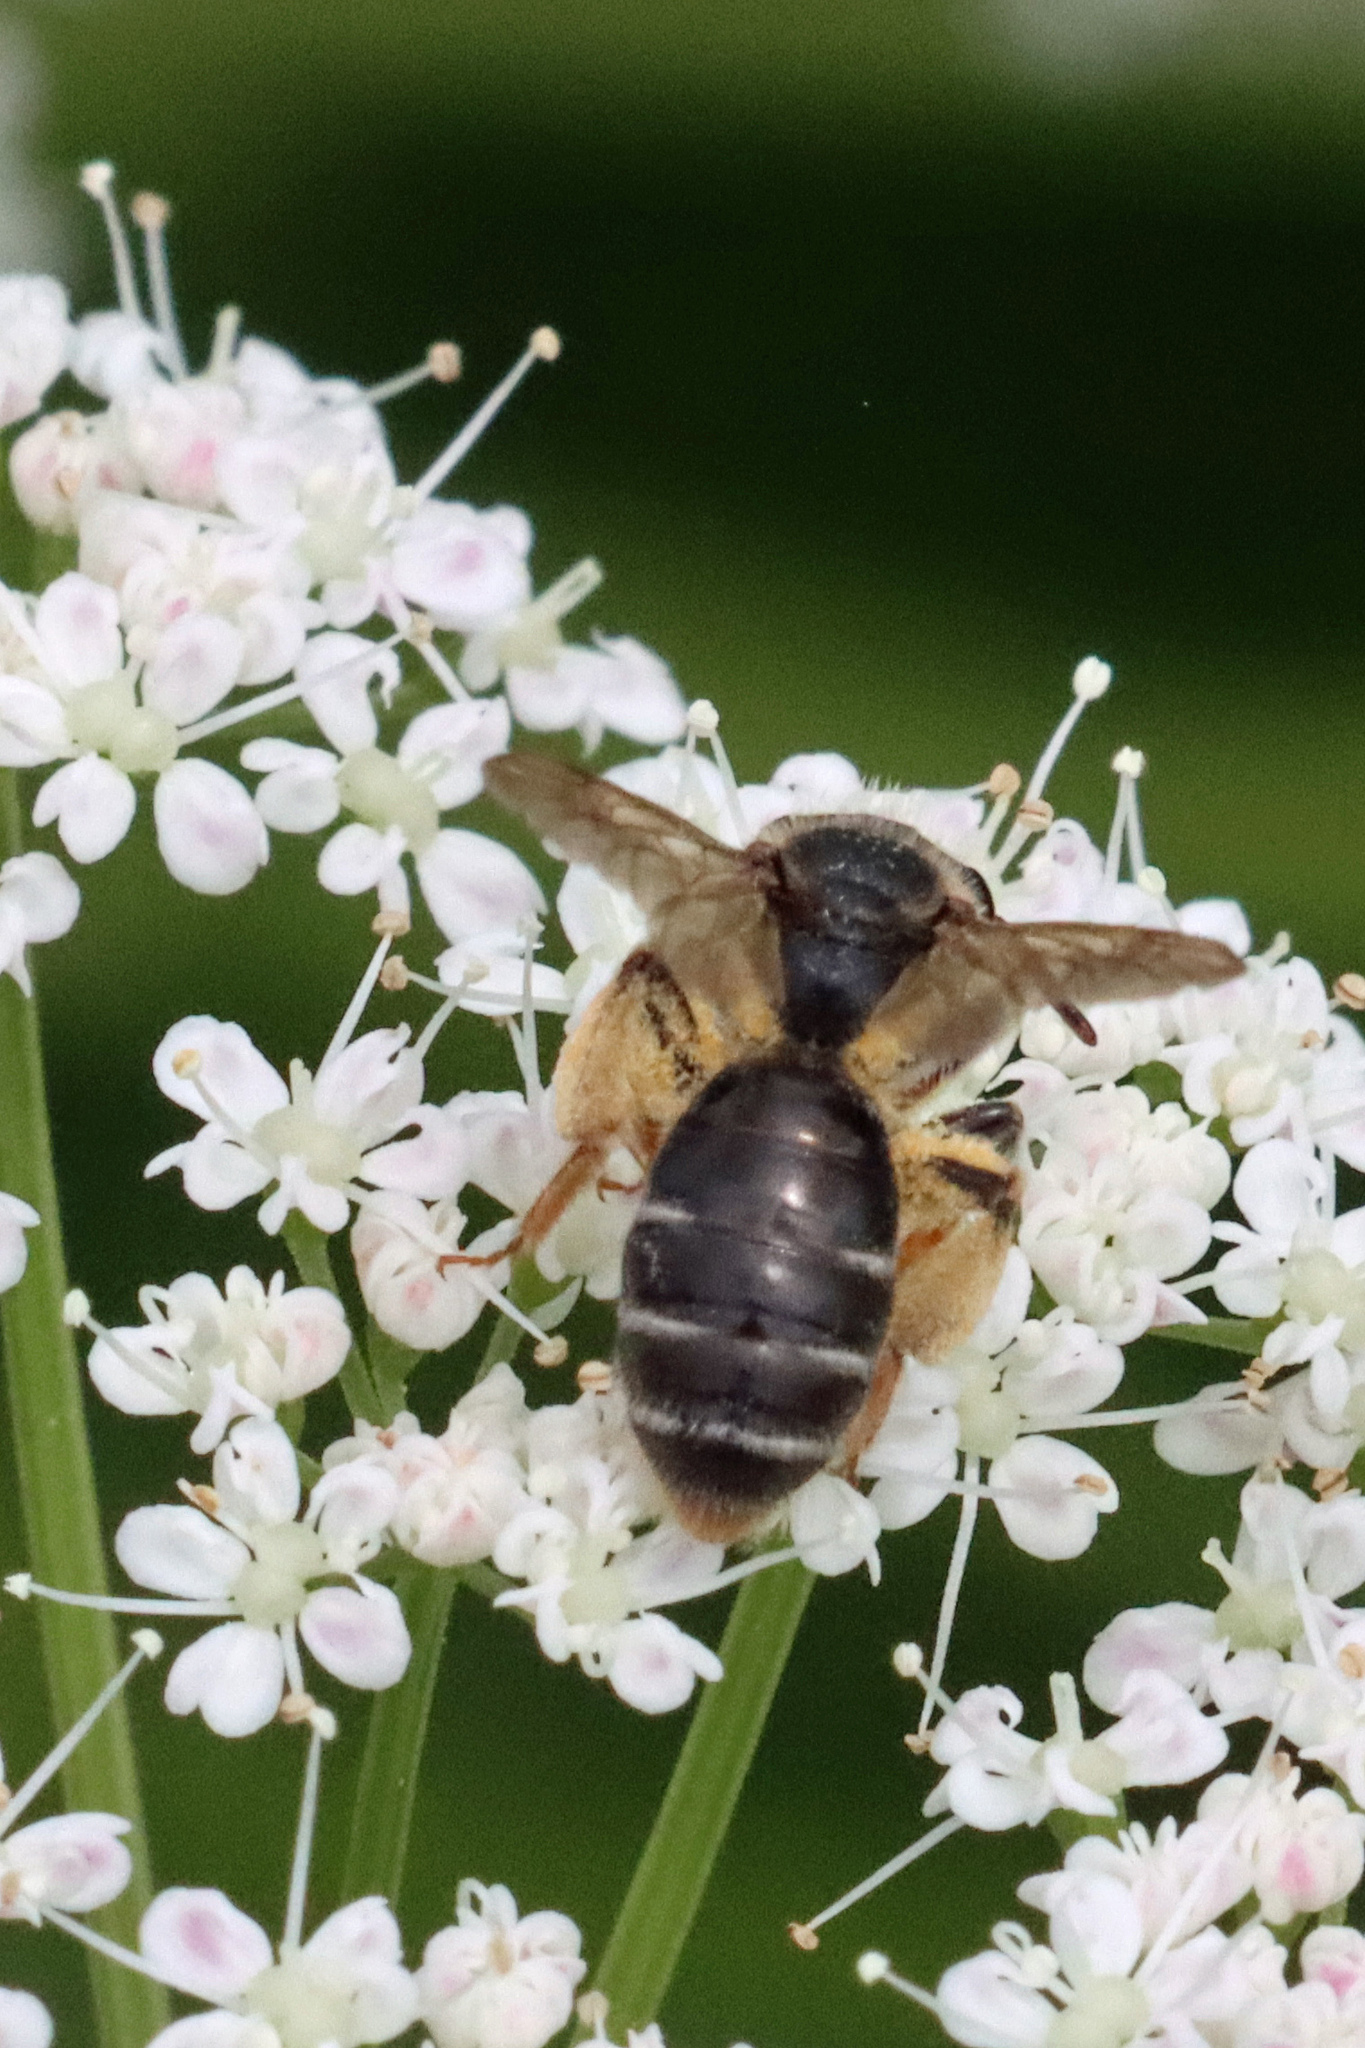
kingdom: Animalia
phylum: Arthropoda
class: Insecta
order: Hymenoptera
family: Andrenidae
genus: Andrena
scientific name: Andrena chrysosceles
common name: Hawthorne mining bee
